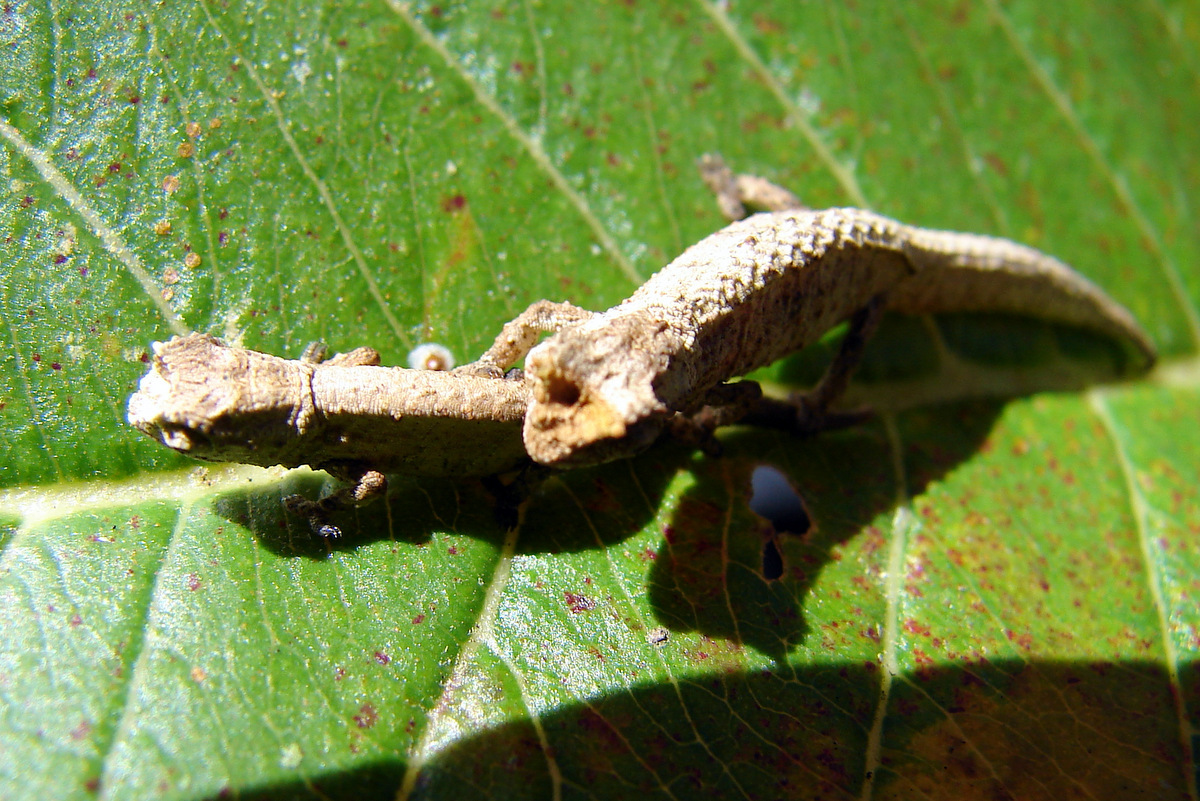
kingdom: Animalia
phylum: Chordata
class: Squamata
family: Chamaeleonidae
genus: Brookesia
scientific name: Brookesia tuberculata
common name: Mount d'ambre leaf chameleon
